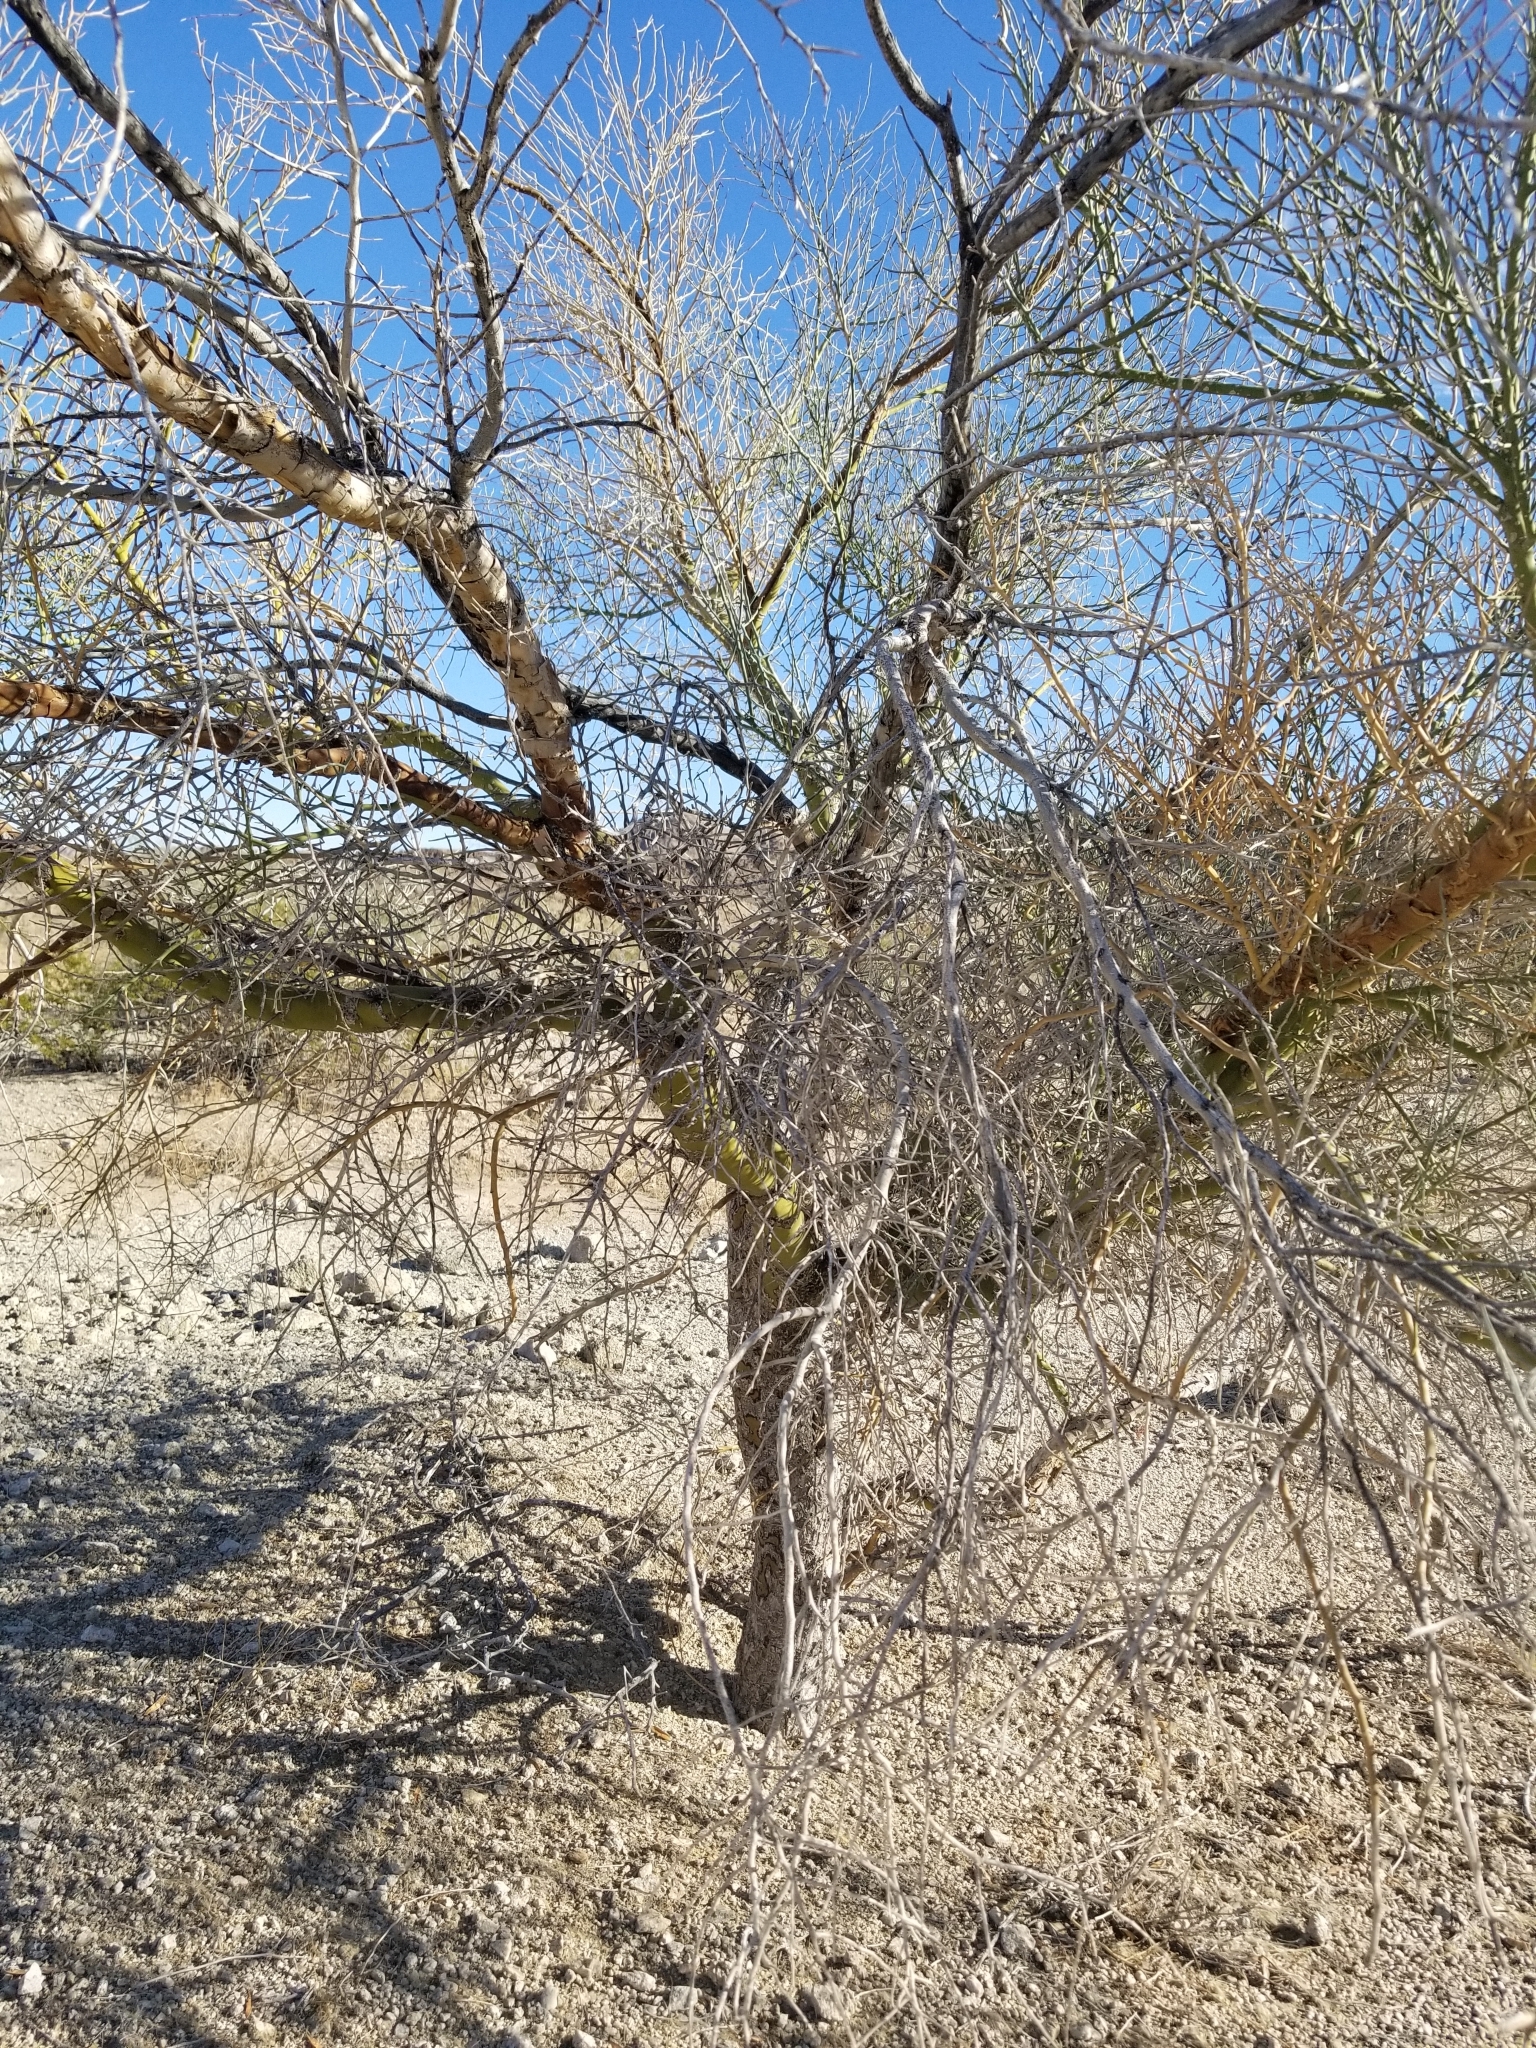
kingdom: Plantae
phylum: Tracheophyta
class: Magnoliopsida
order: Fabales
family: Fabaceae
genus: Parkinsonia
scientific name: Parkinsonia florida
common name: Blue paloverde
